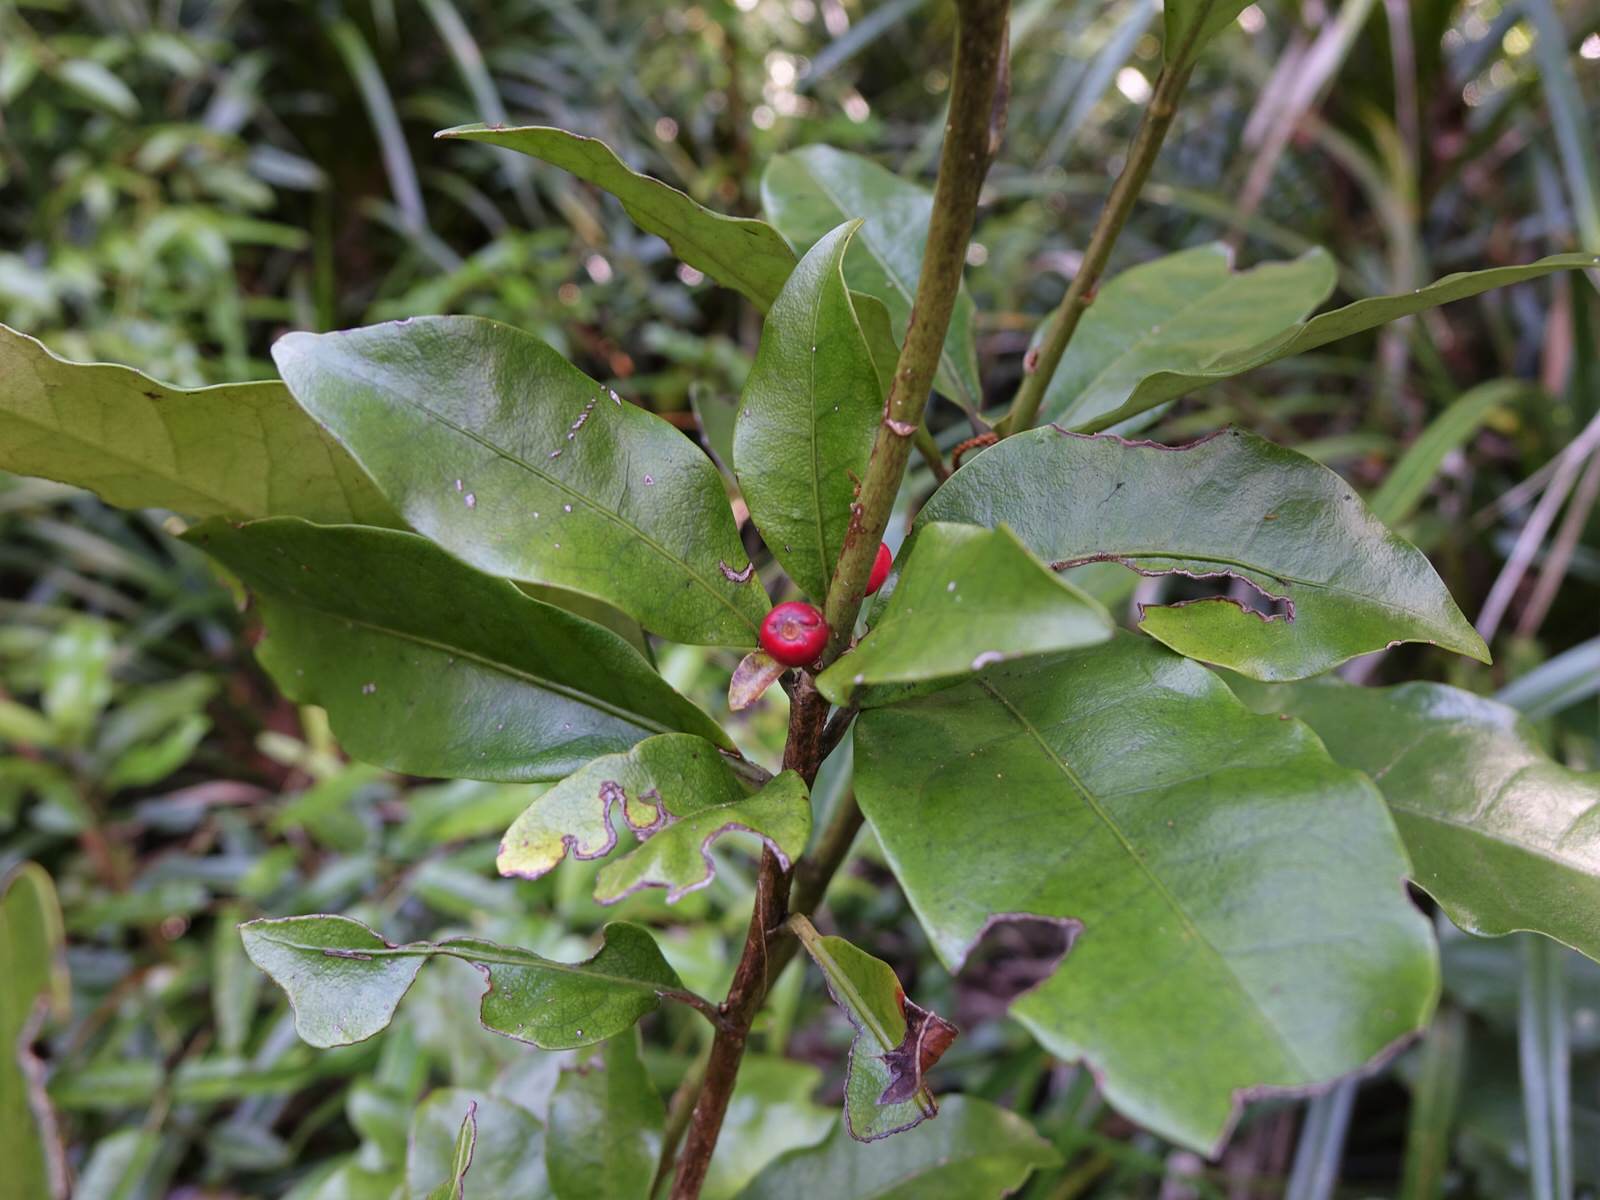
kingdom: Plantae
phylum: Tracheophyta
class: Magnoliopsida
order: Asterales
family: Alseuosmiaceae
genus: Alseuosmia
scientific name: Alseuosmia macrophylla
